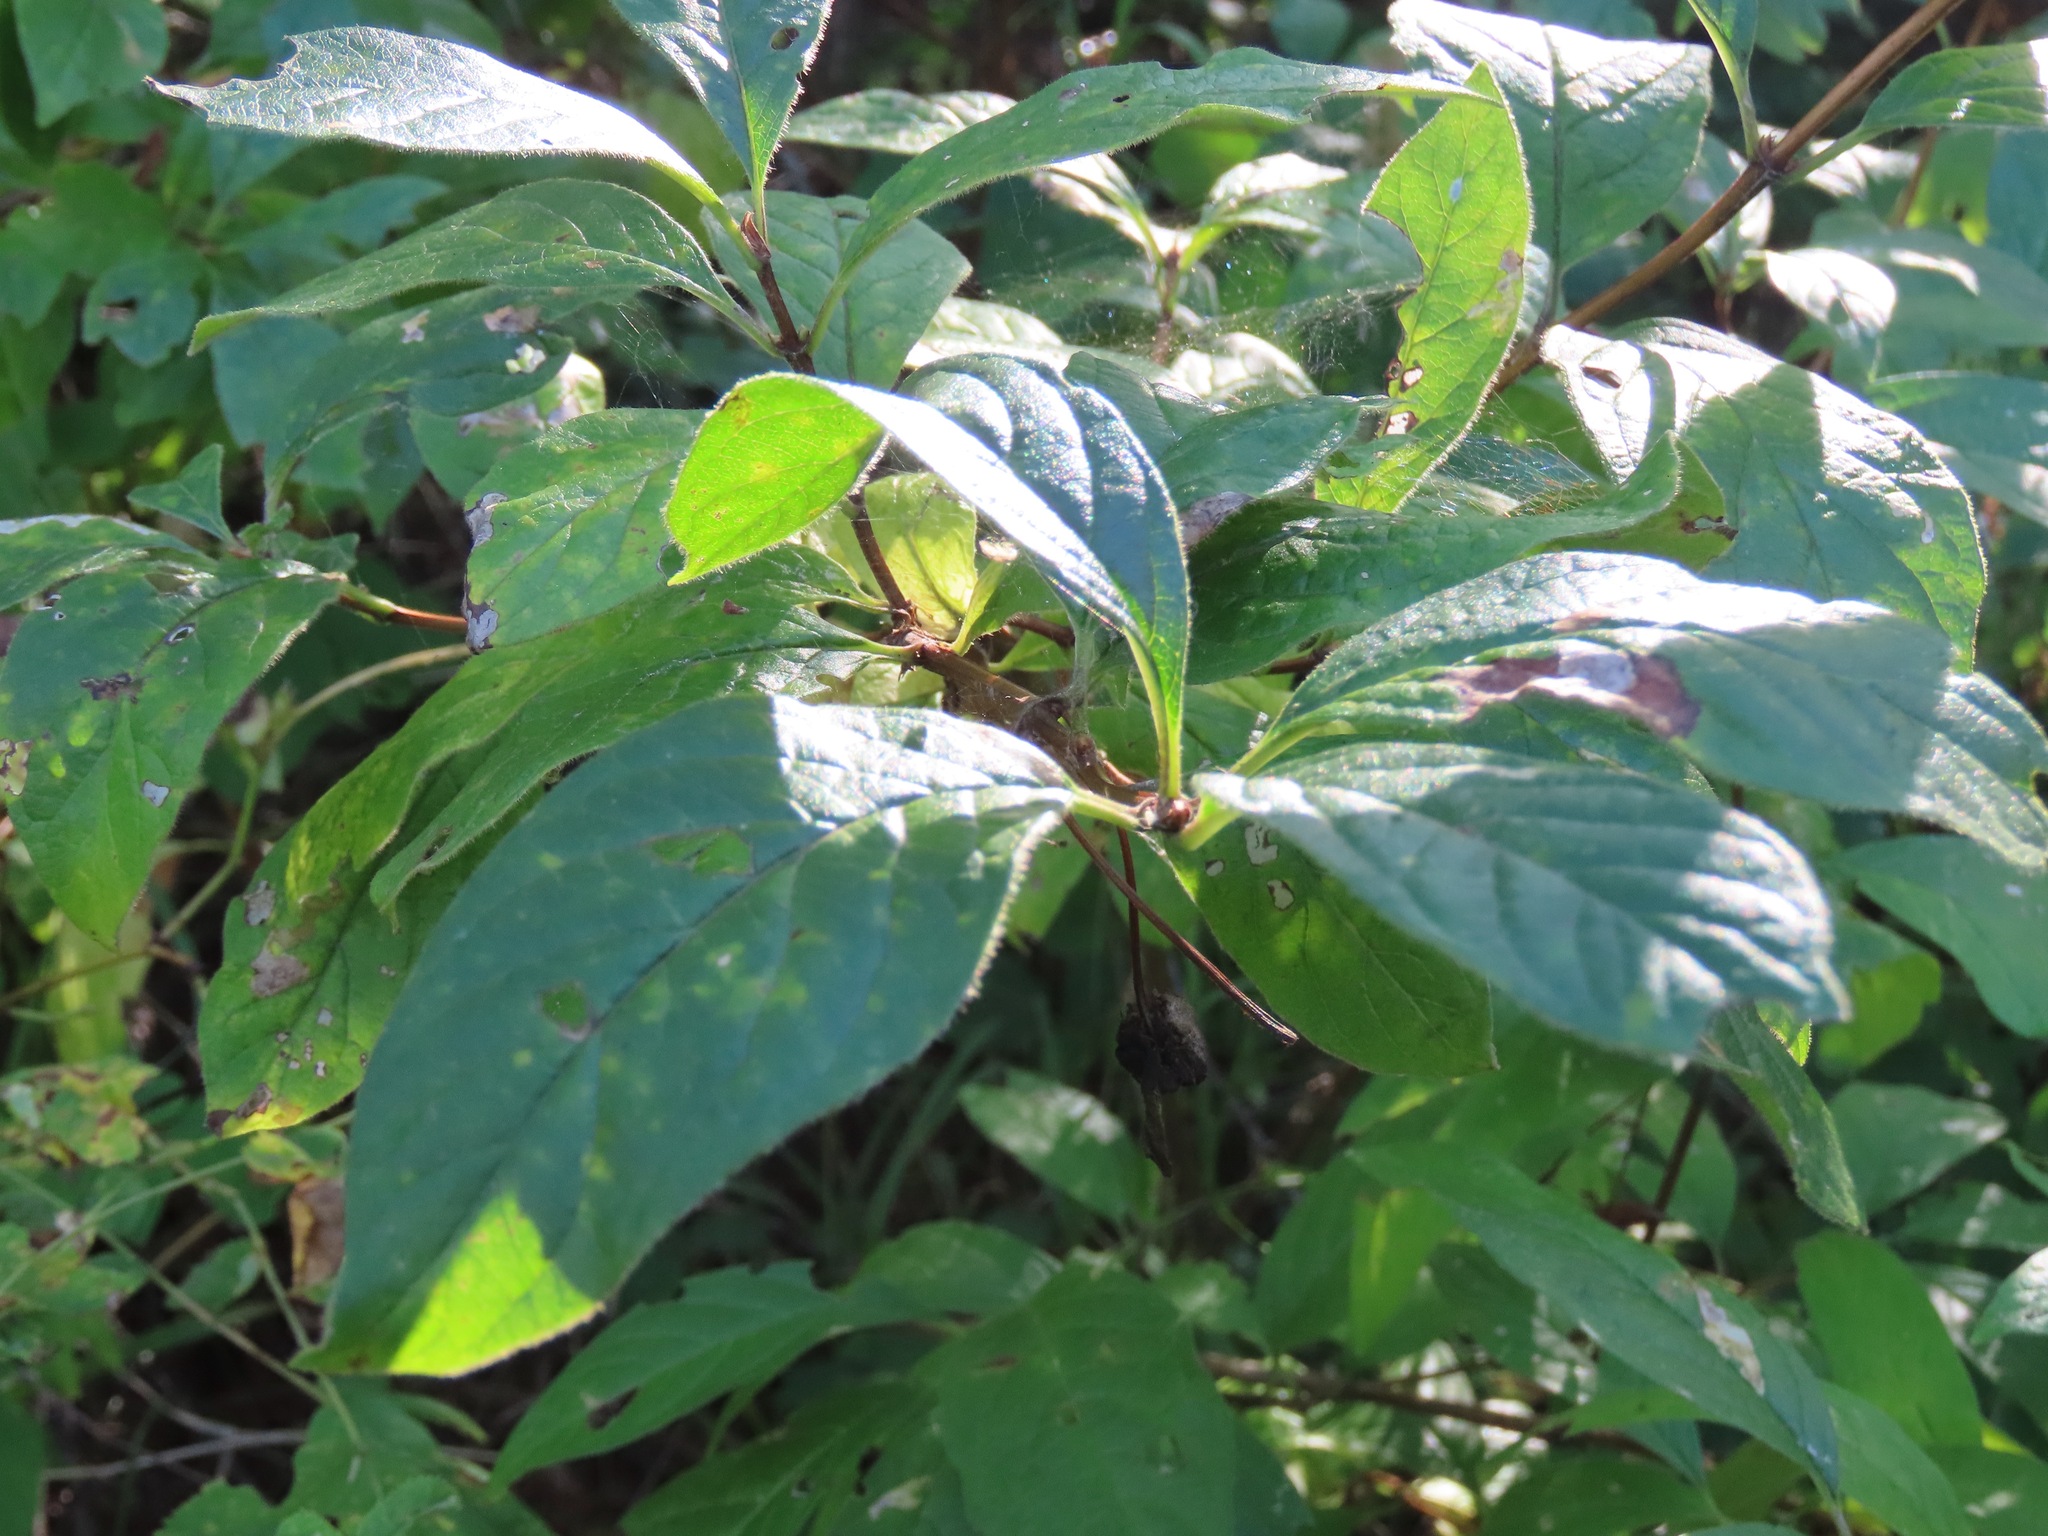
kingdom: Plantae
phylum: Tracheophyta
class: Magnoliopsida
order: Dipsacales
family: Caprifoliaceae
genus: Lonicera
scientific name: Lonicera involucrata
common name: Californian honeysuckle
